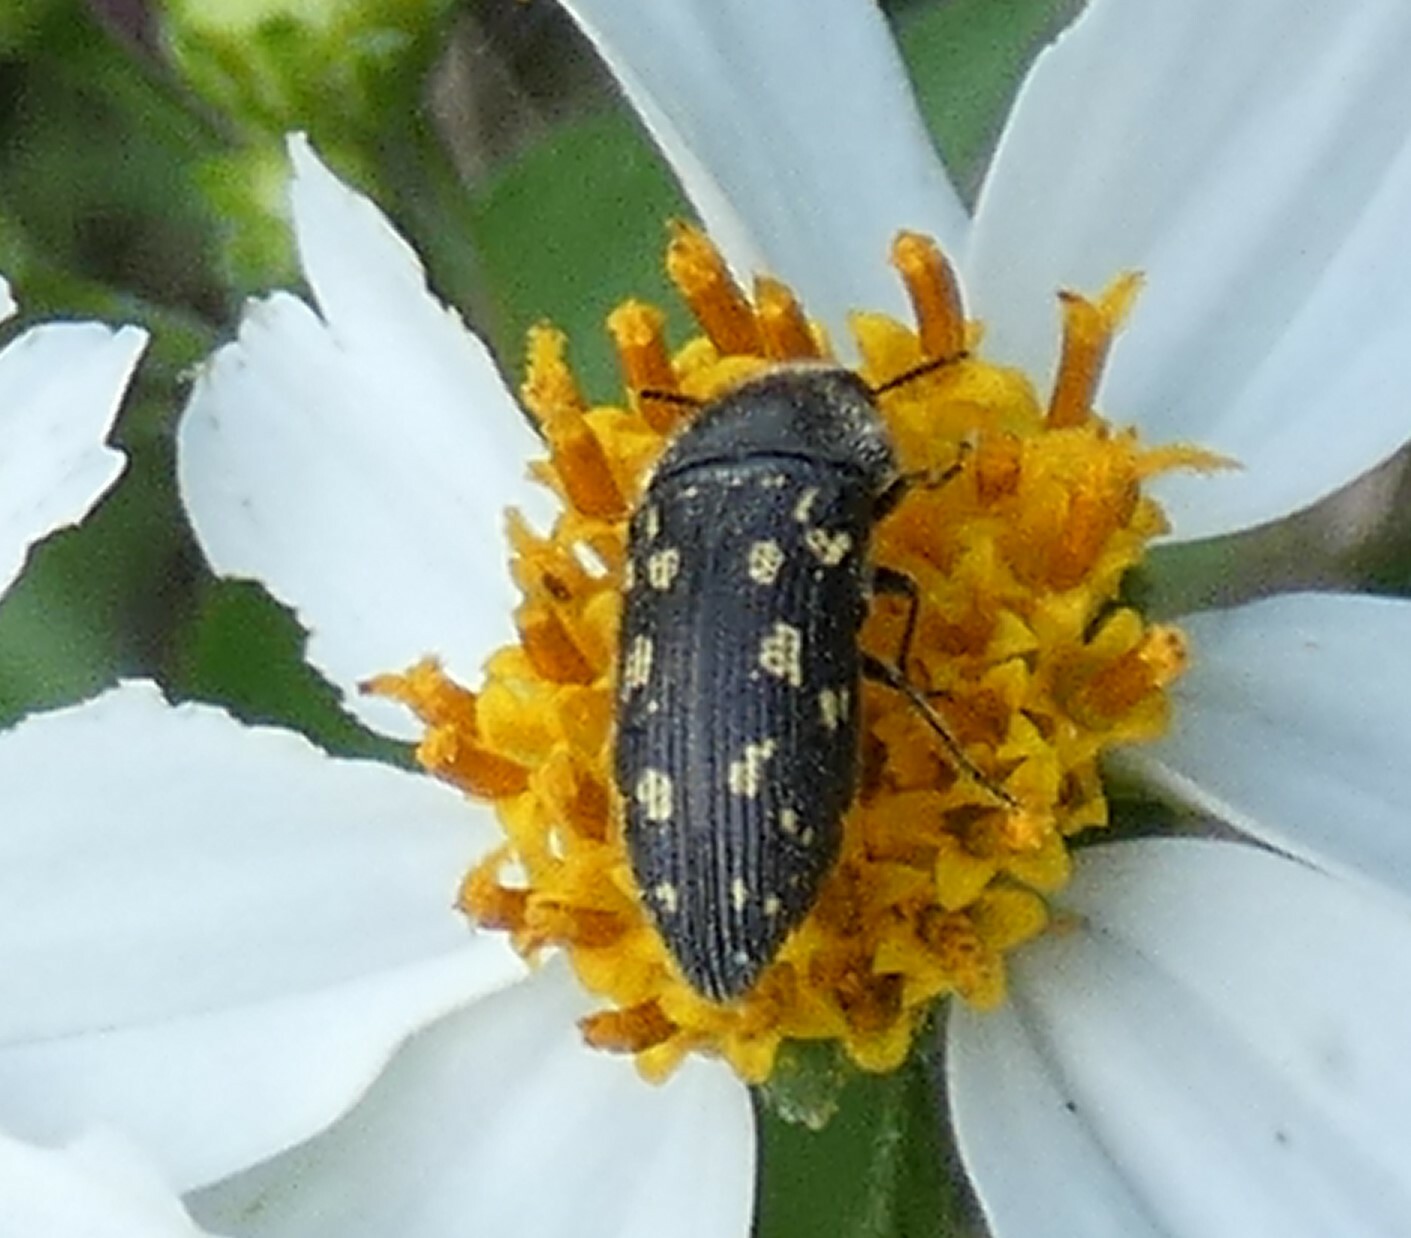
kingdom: Animalia
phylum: Arthropoda
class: Insecta
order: Coleoptera
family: Buprestidae
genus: Acmaeodera
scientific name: Acmaeodera tubulus
